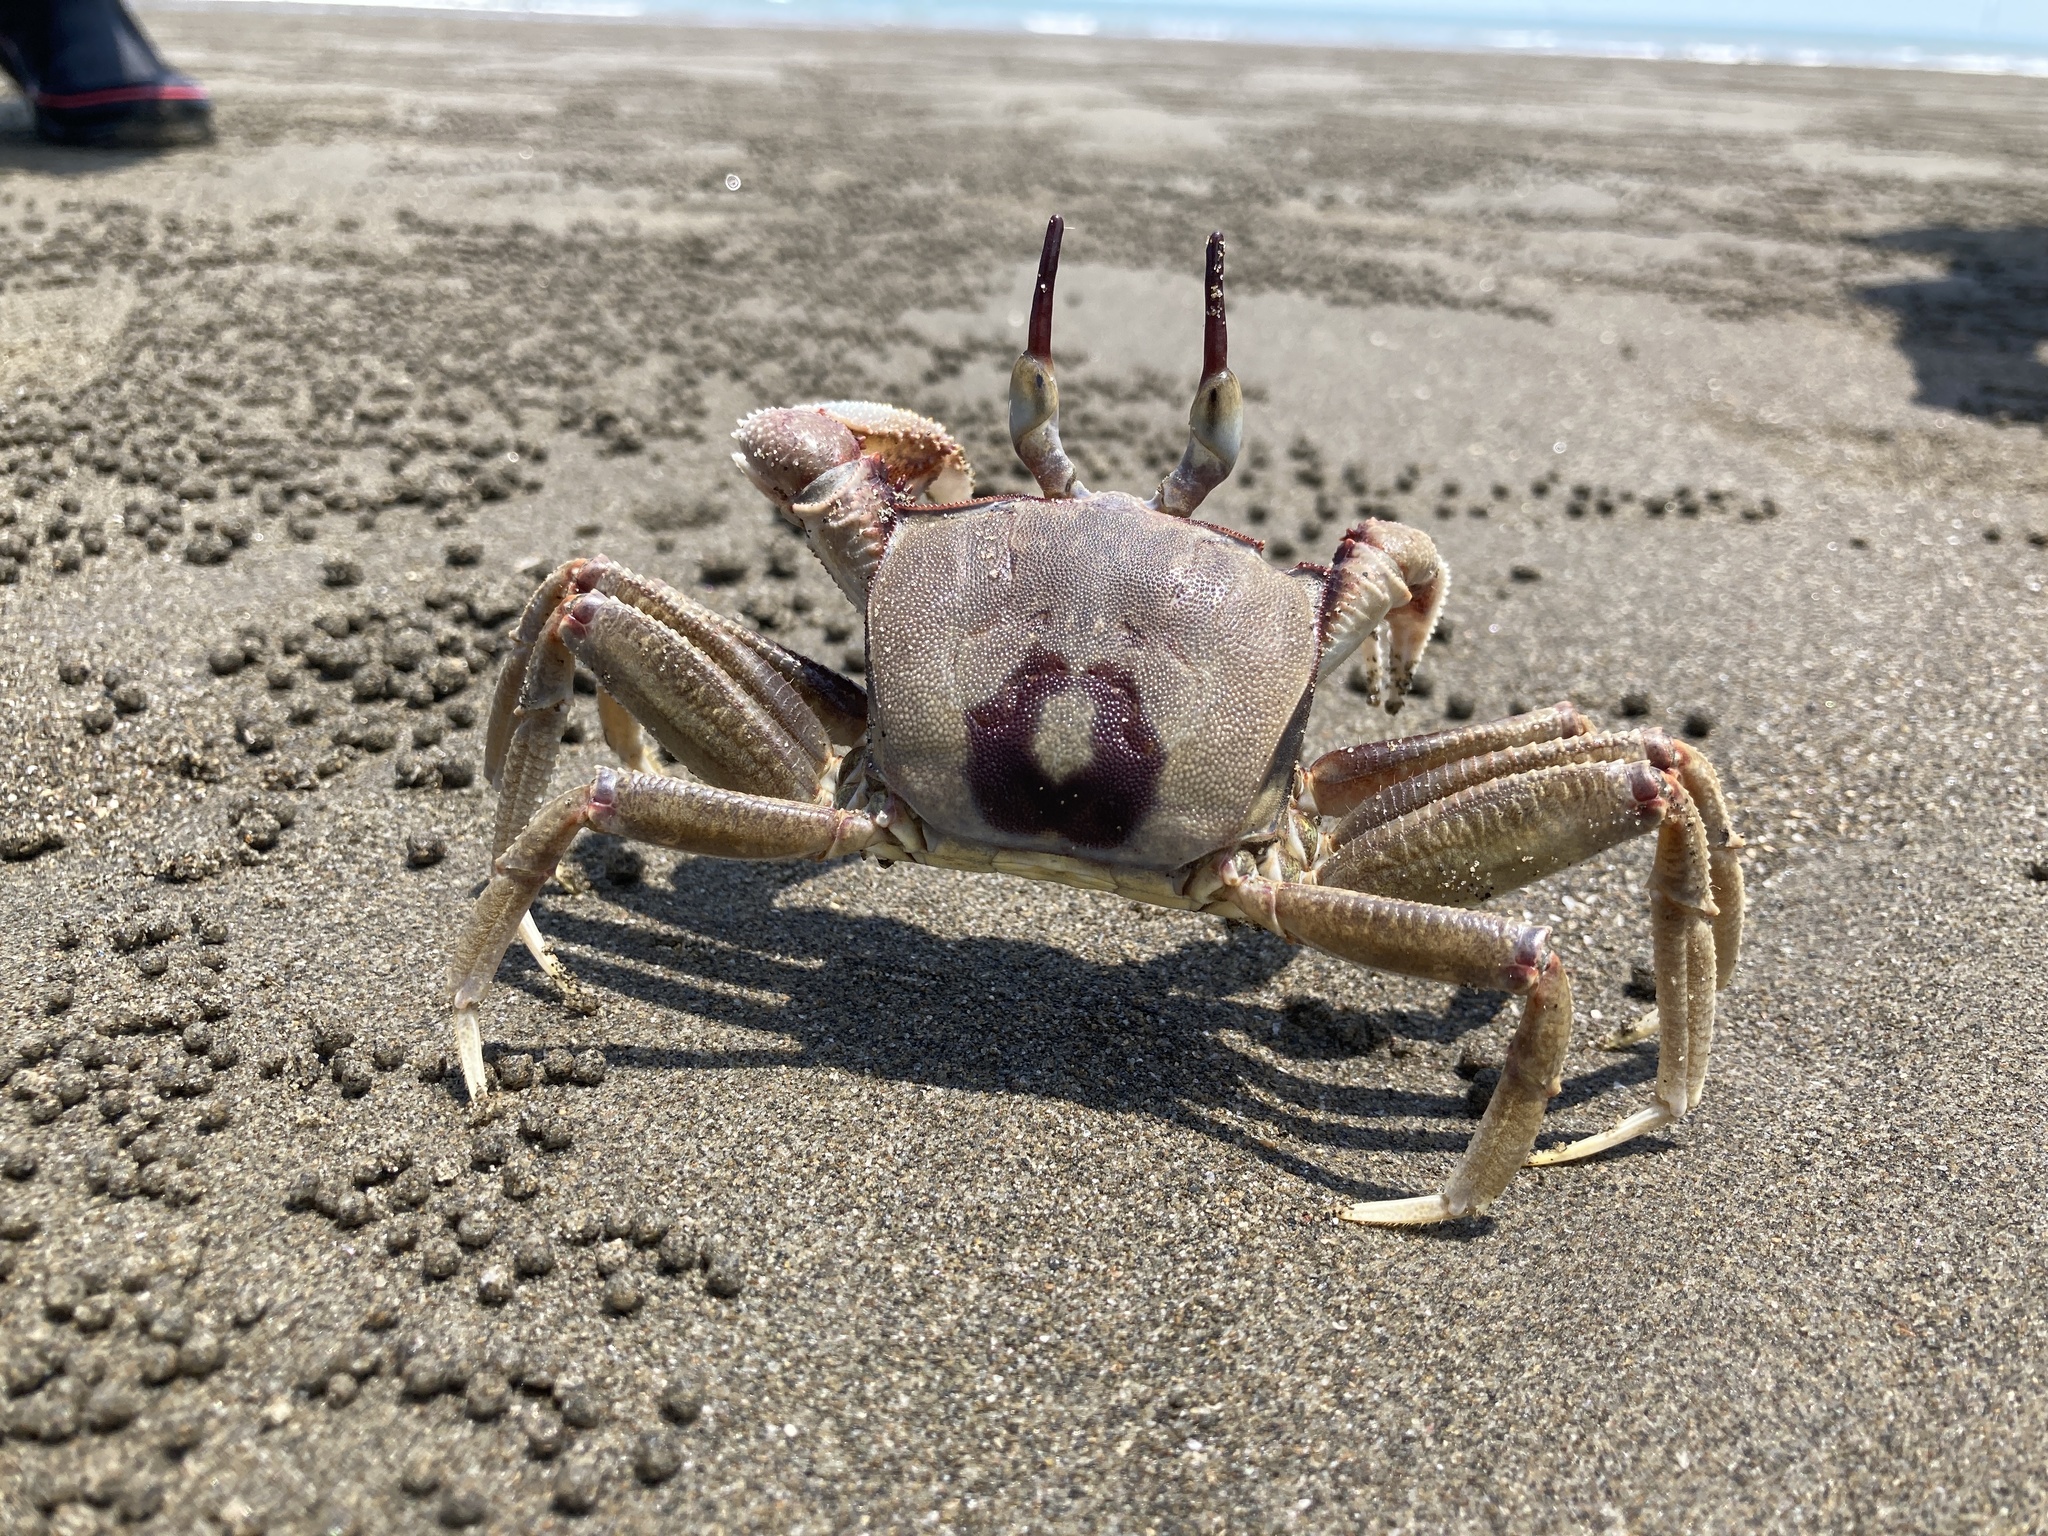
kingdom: Animalia
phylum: Arthropoda
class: Malacostraca
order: Decapoda
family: Ocypodidae
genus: Ocypode
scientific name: Ocypode ceratophthalmus
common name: Indo-pacific ghost crab
